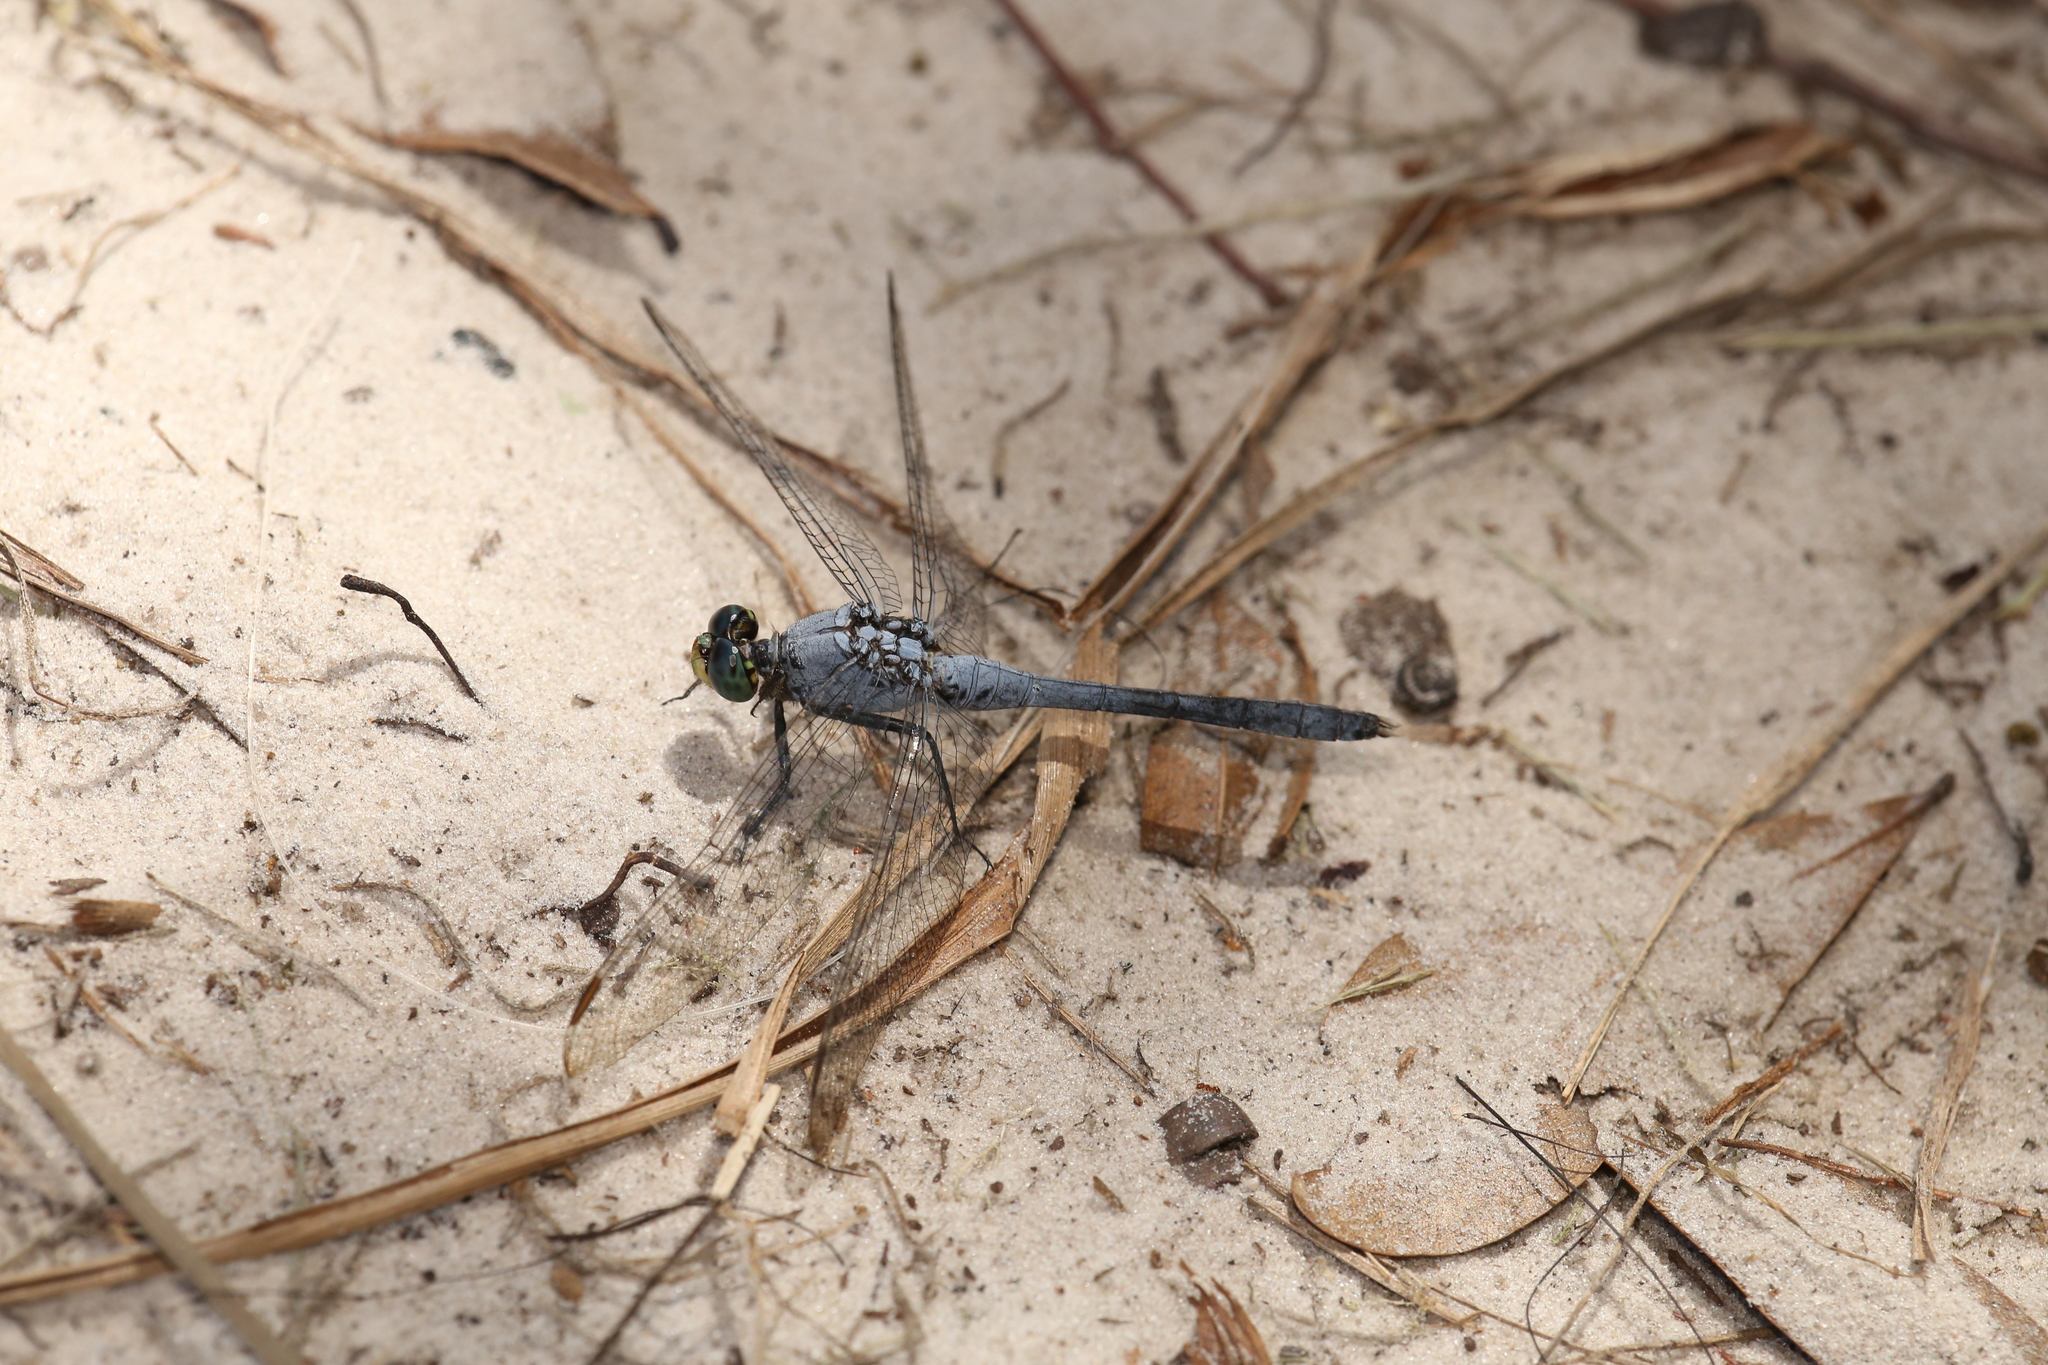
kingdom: Animalia
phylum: Arthropoda
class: Insecta
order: Odonata
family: Libellulidae
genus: Erythemis
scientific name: Erythemis simplicicollis
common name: Eastern pondhawk
